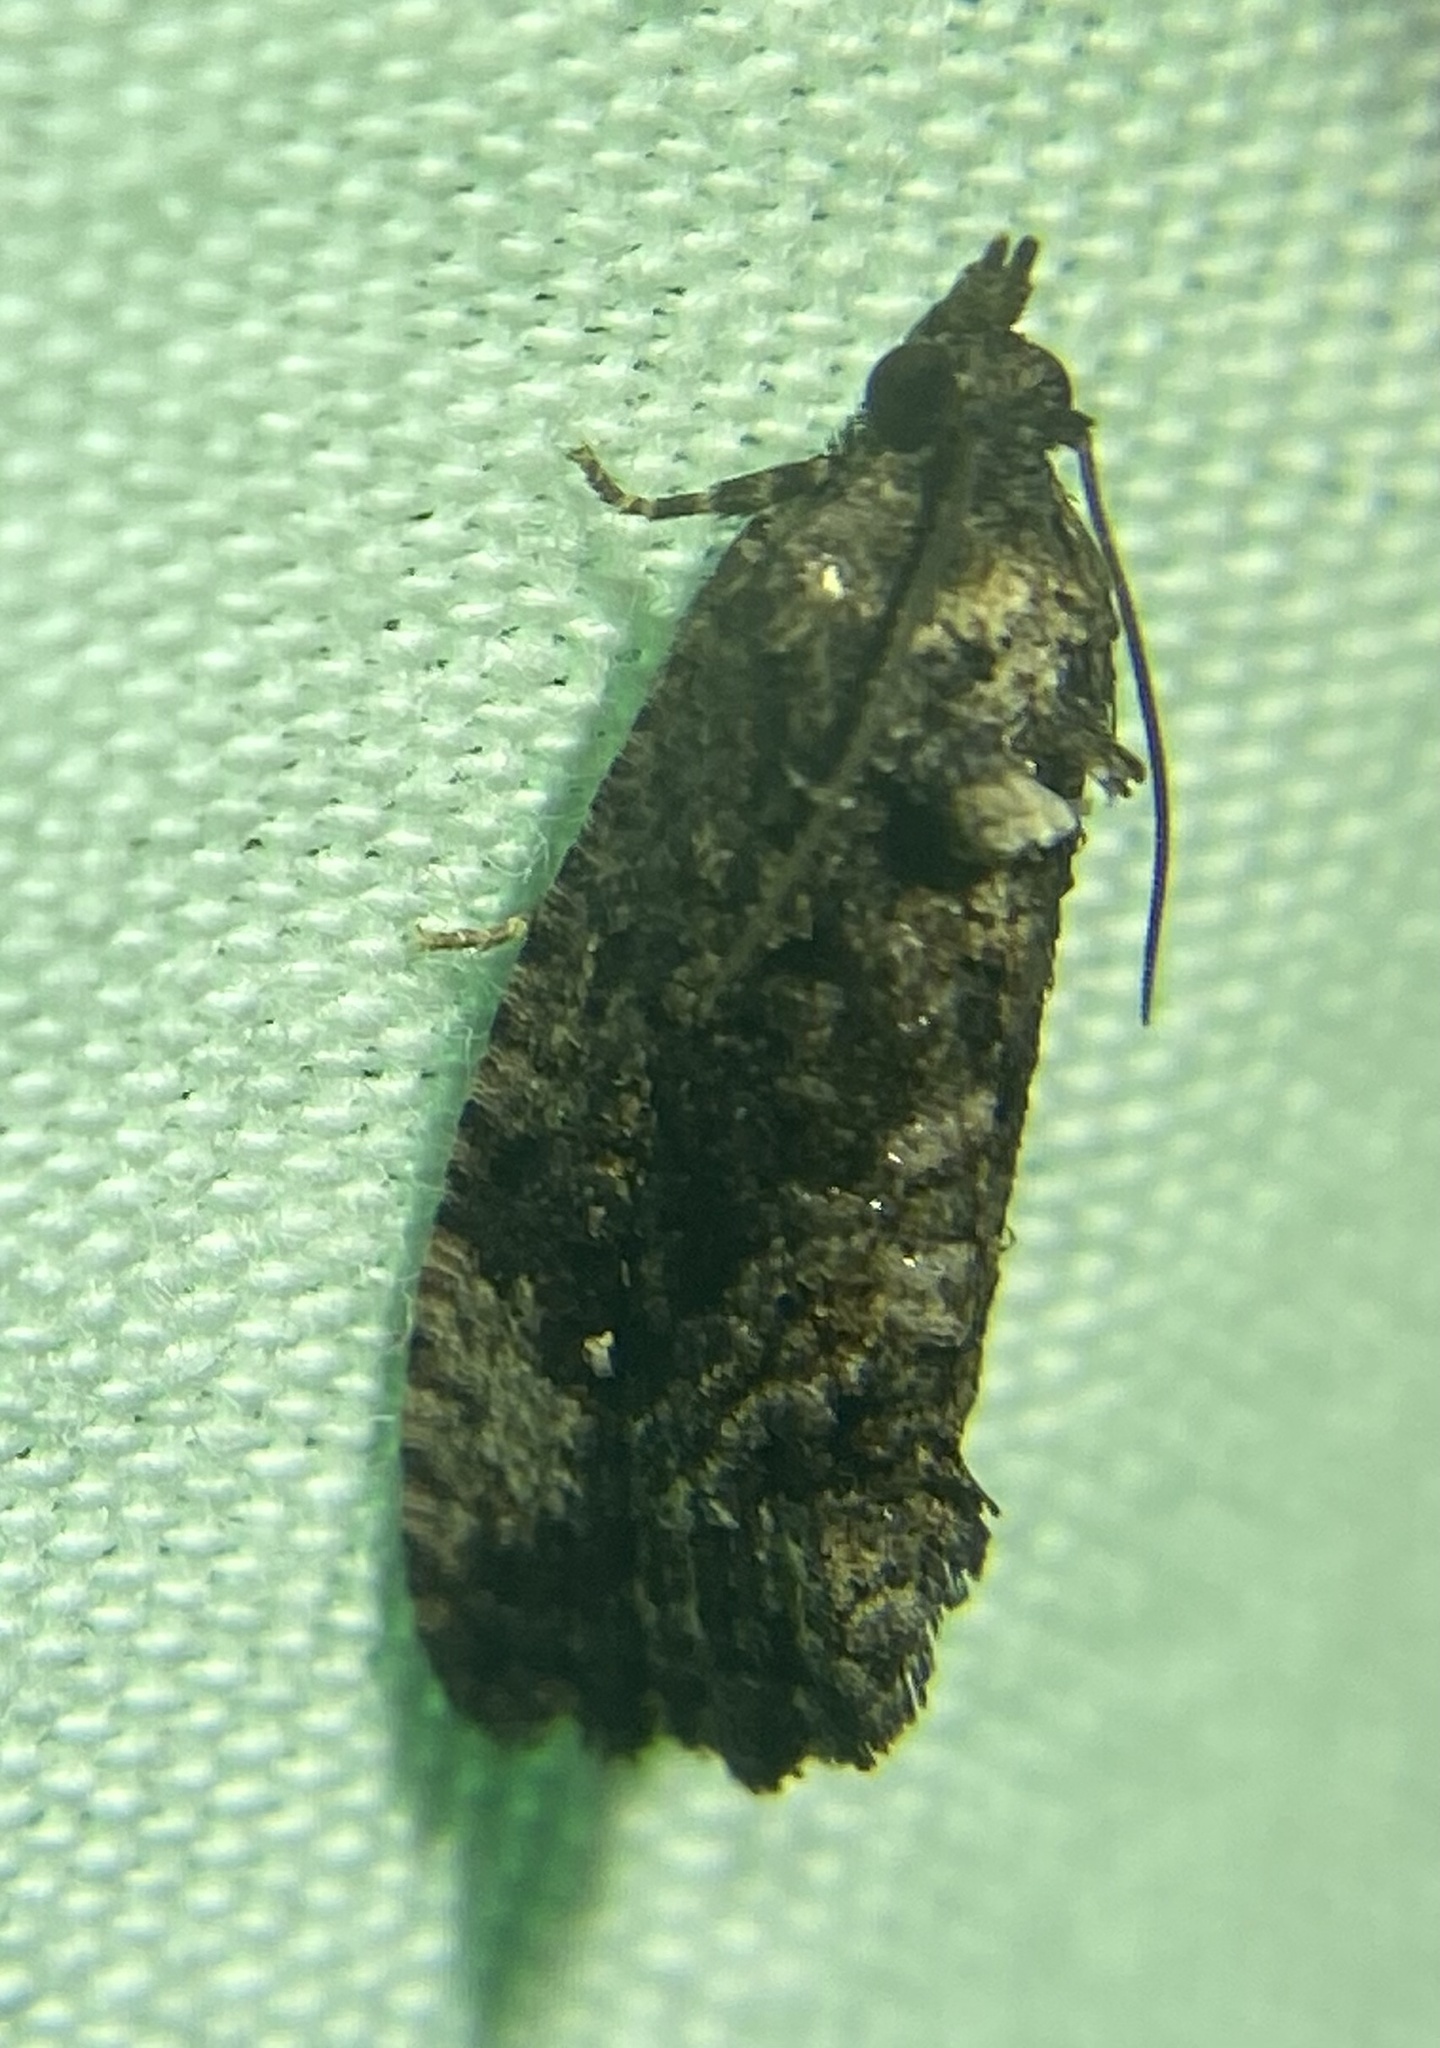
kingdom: Animalia
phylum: Arthropoda
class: Insecta
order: Lepidoptera
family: Tortricidae
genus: Gymnandrosoma
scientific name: Gymnandrosoma punctidiscanum
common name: Dotted ecdytolopha moth
